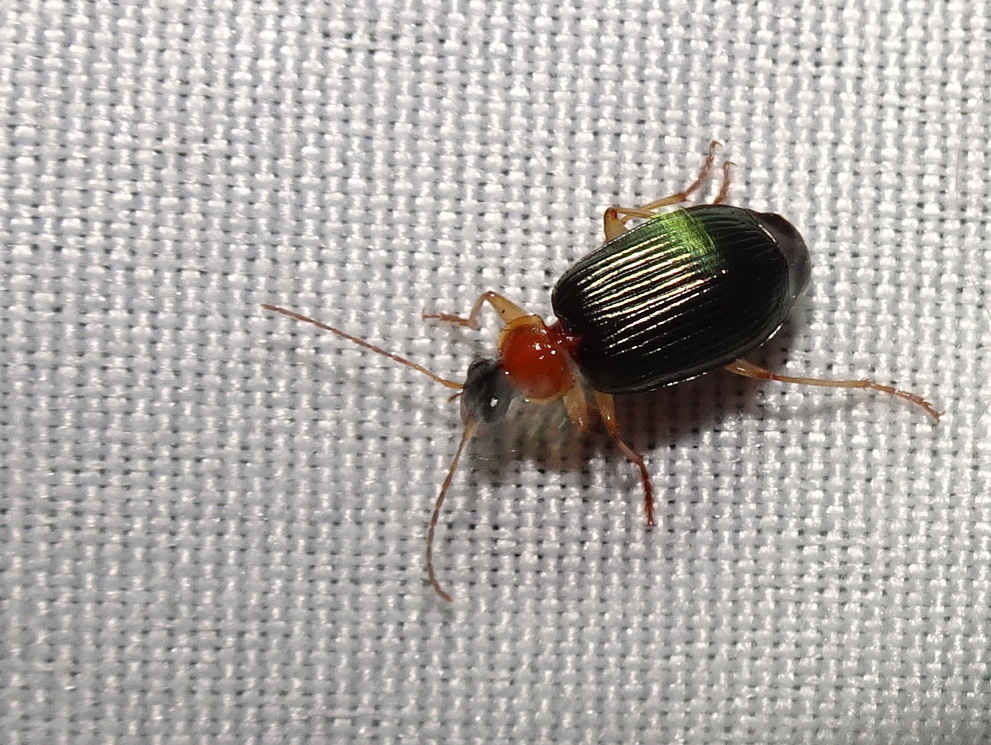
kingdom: Animalia
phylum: Arthropoda
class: Insecta
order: Coleoptera
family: Carabidae
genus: Lebia
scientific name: Lebia tricolor
